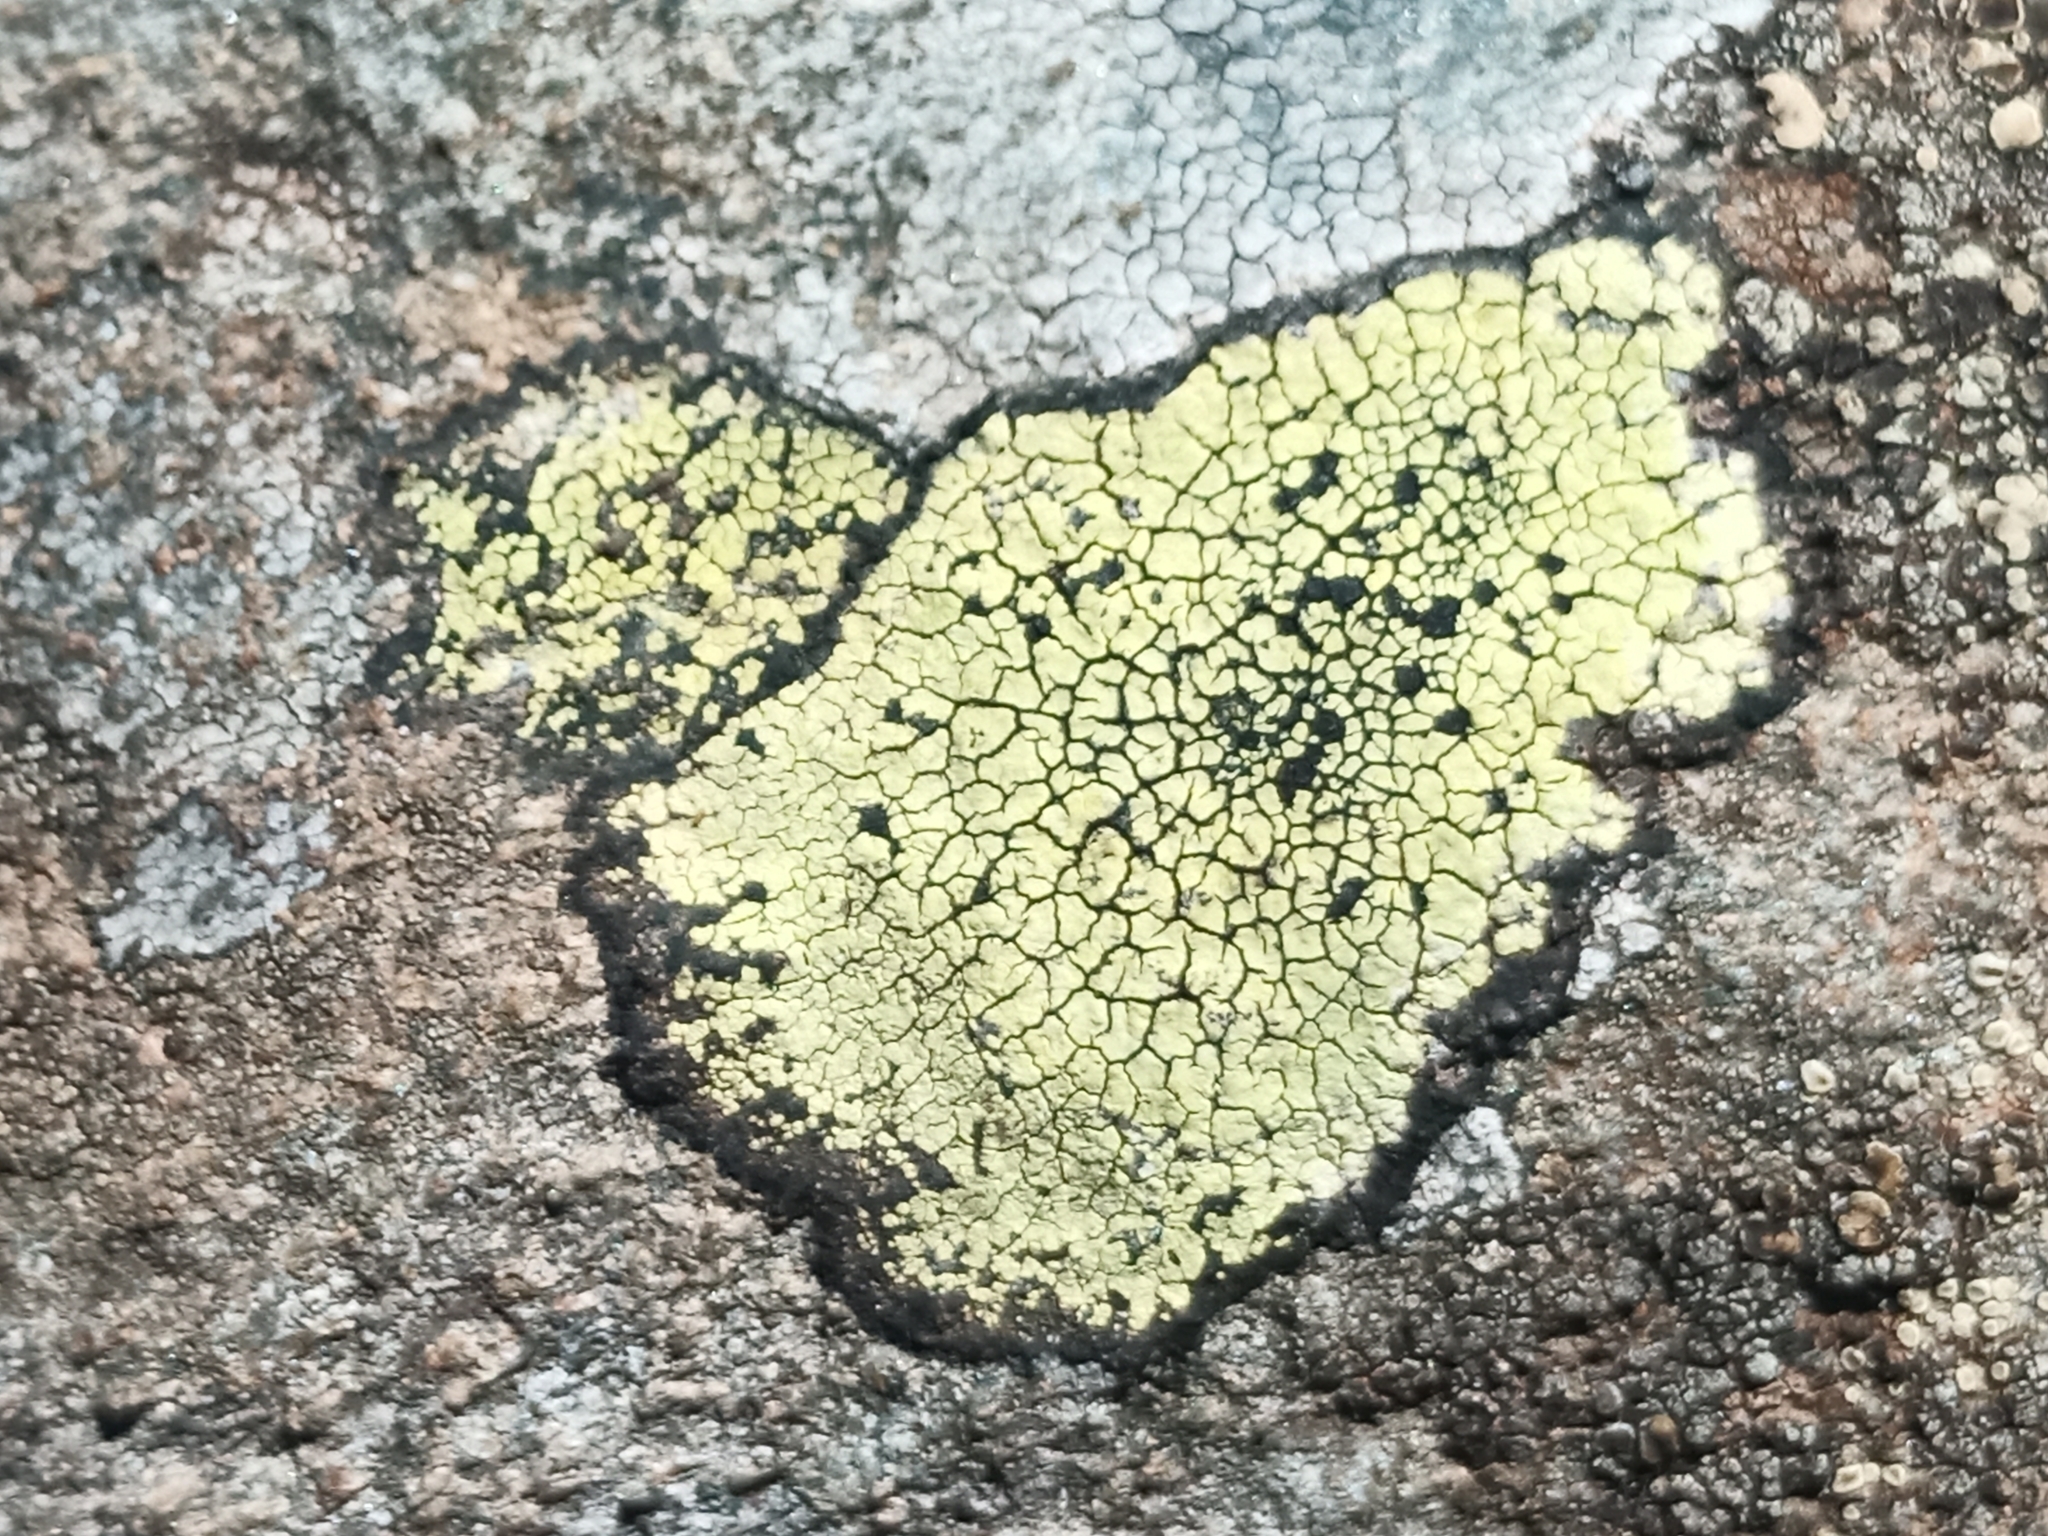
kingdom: Fungi
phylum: Ascomycota
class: Lecanoromycetes
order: Rhizocarpales
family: Rhizocarpaceae
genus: Rhizocarpon
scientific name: Rhizocarpon geographicum
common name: Yellow map lichen
